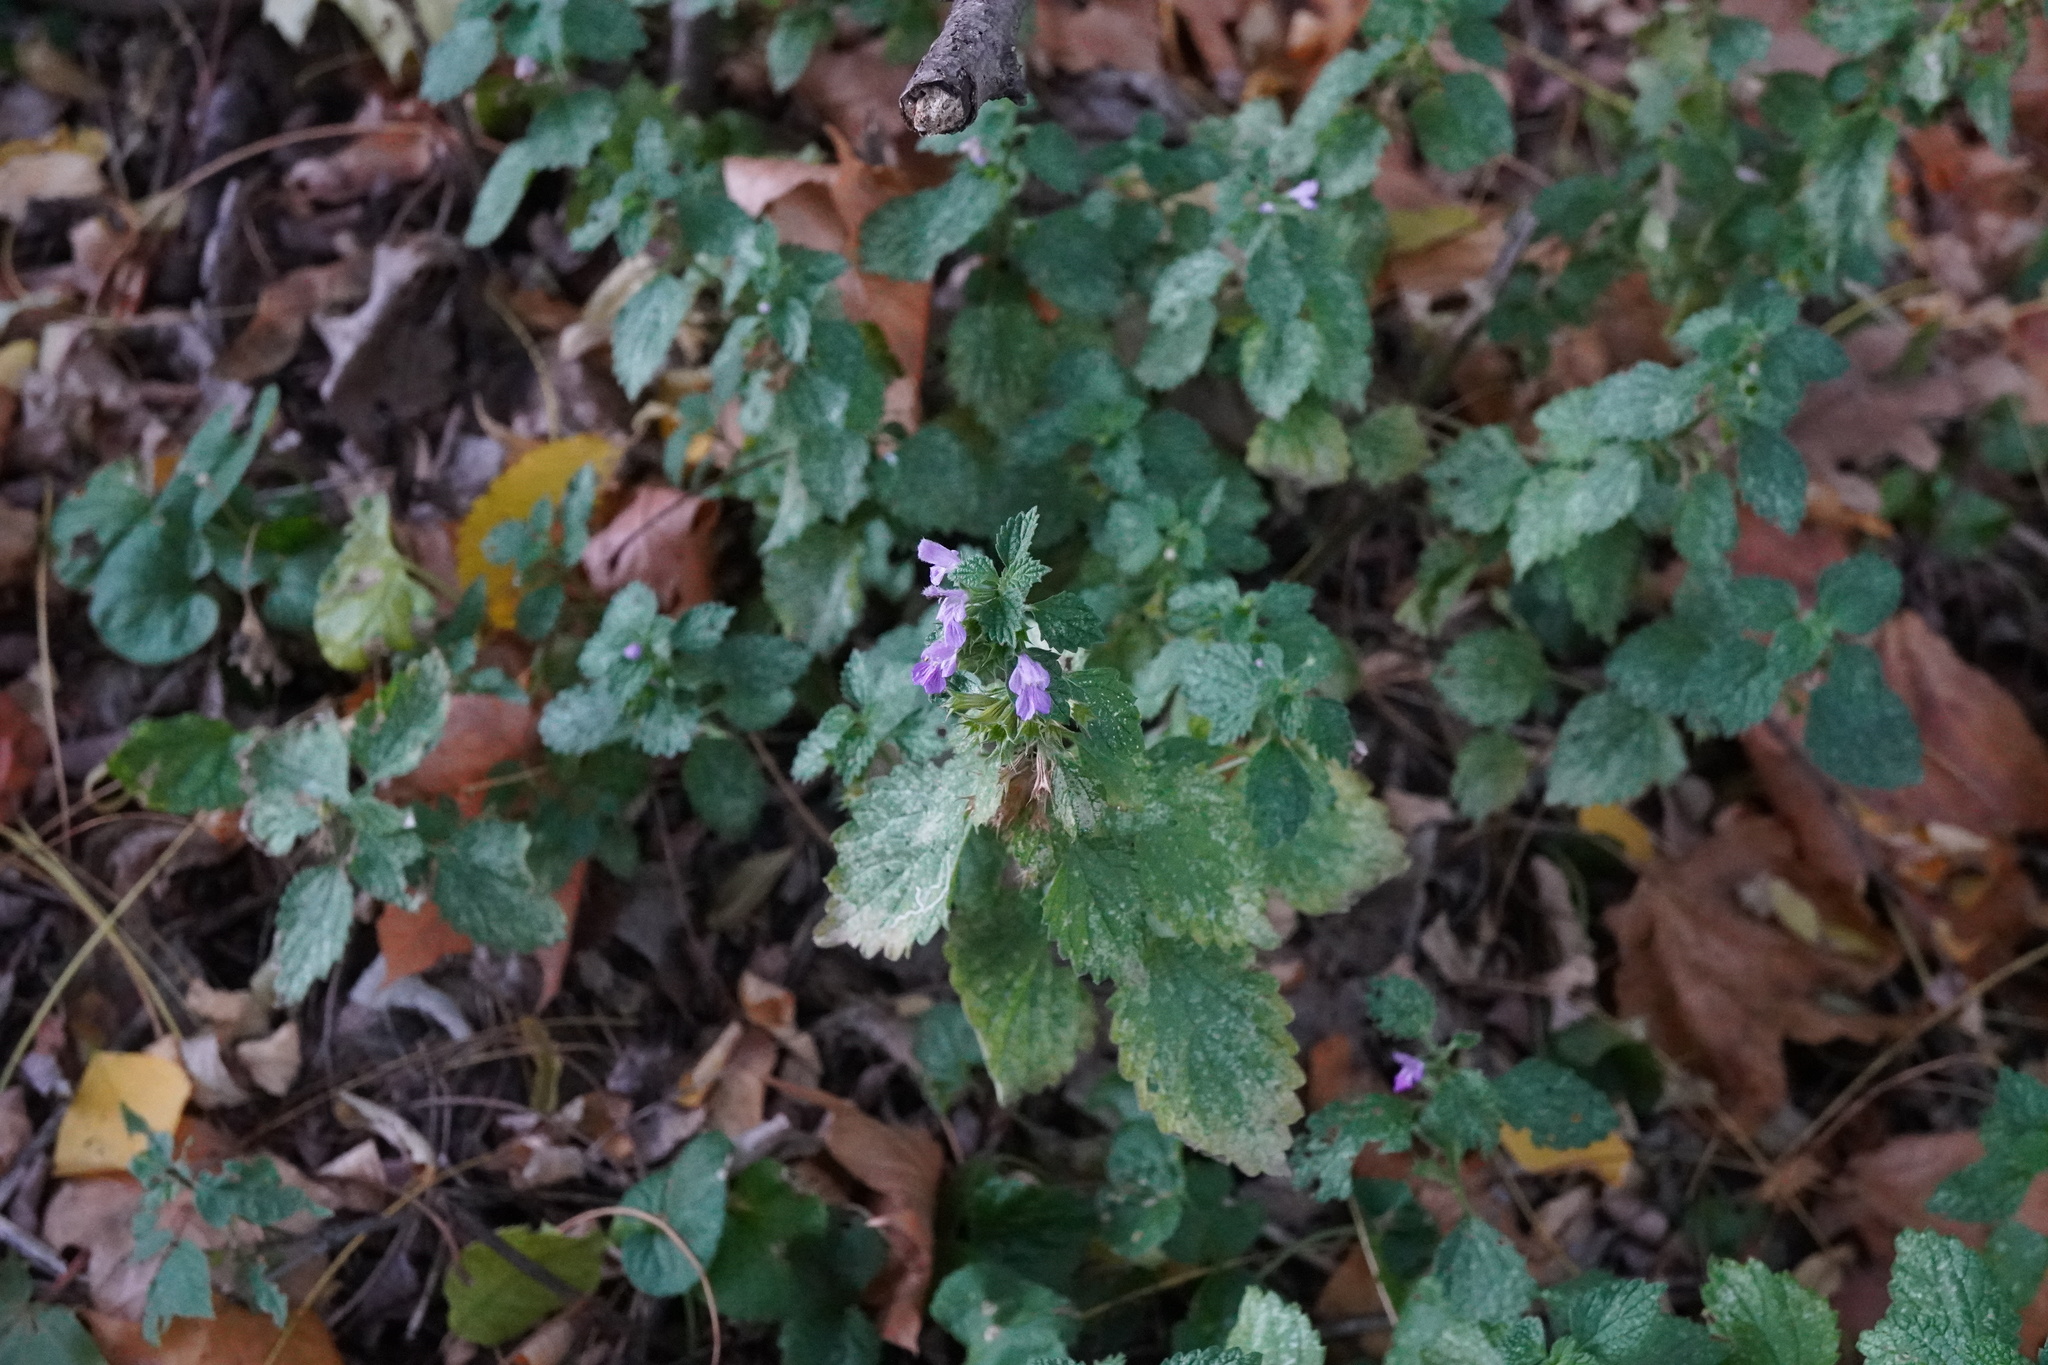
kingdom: Plantae
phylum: Tracheophyta
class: Magnoliopsida
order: Lamiales
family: Lamiaceae
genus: Ballota
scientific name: Ballota nigra
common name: Black horehound
